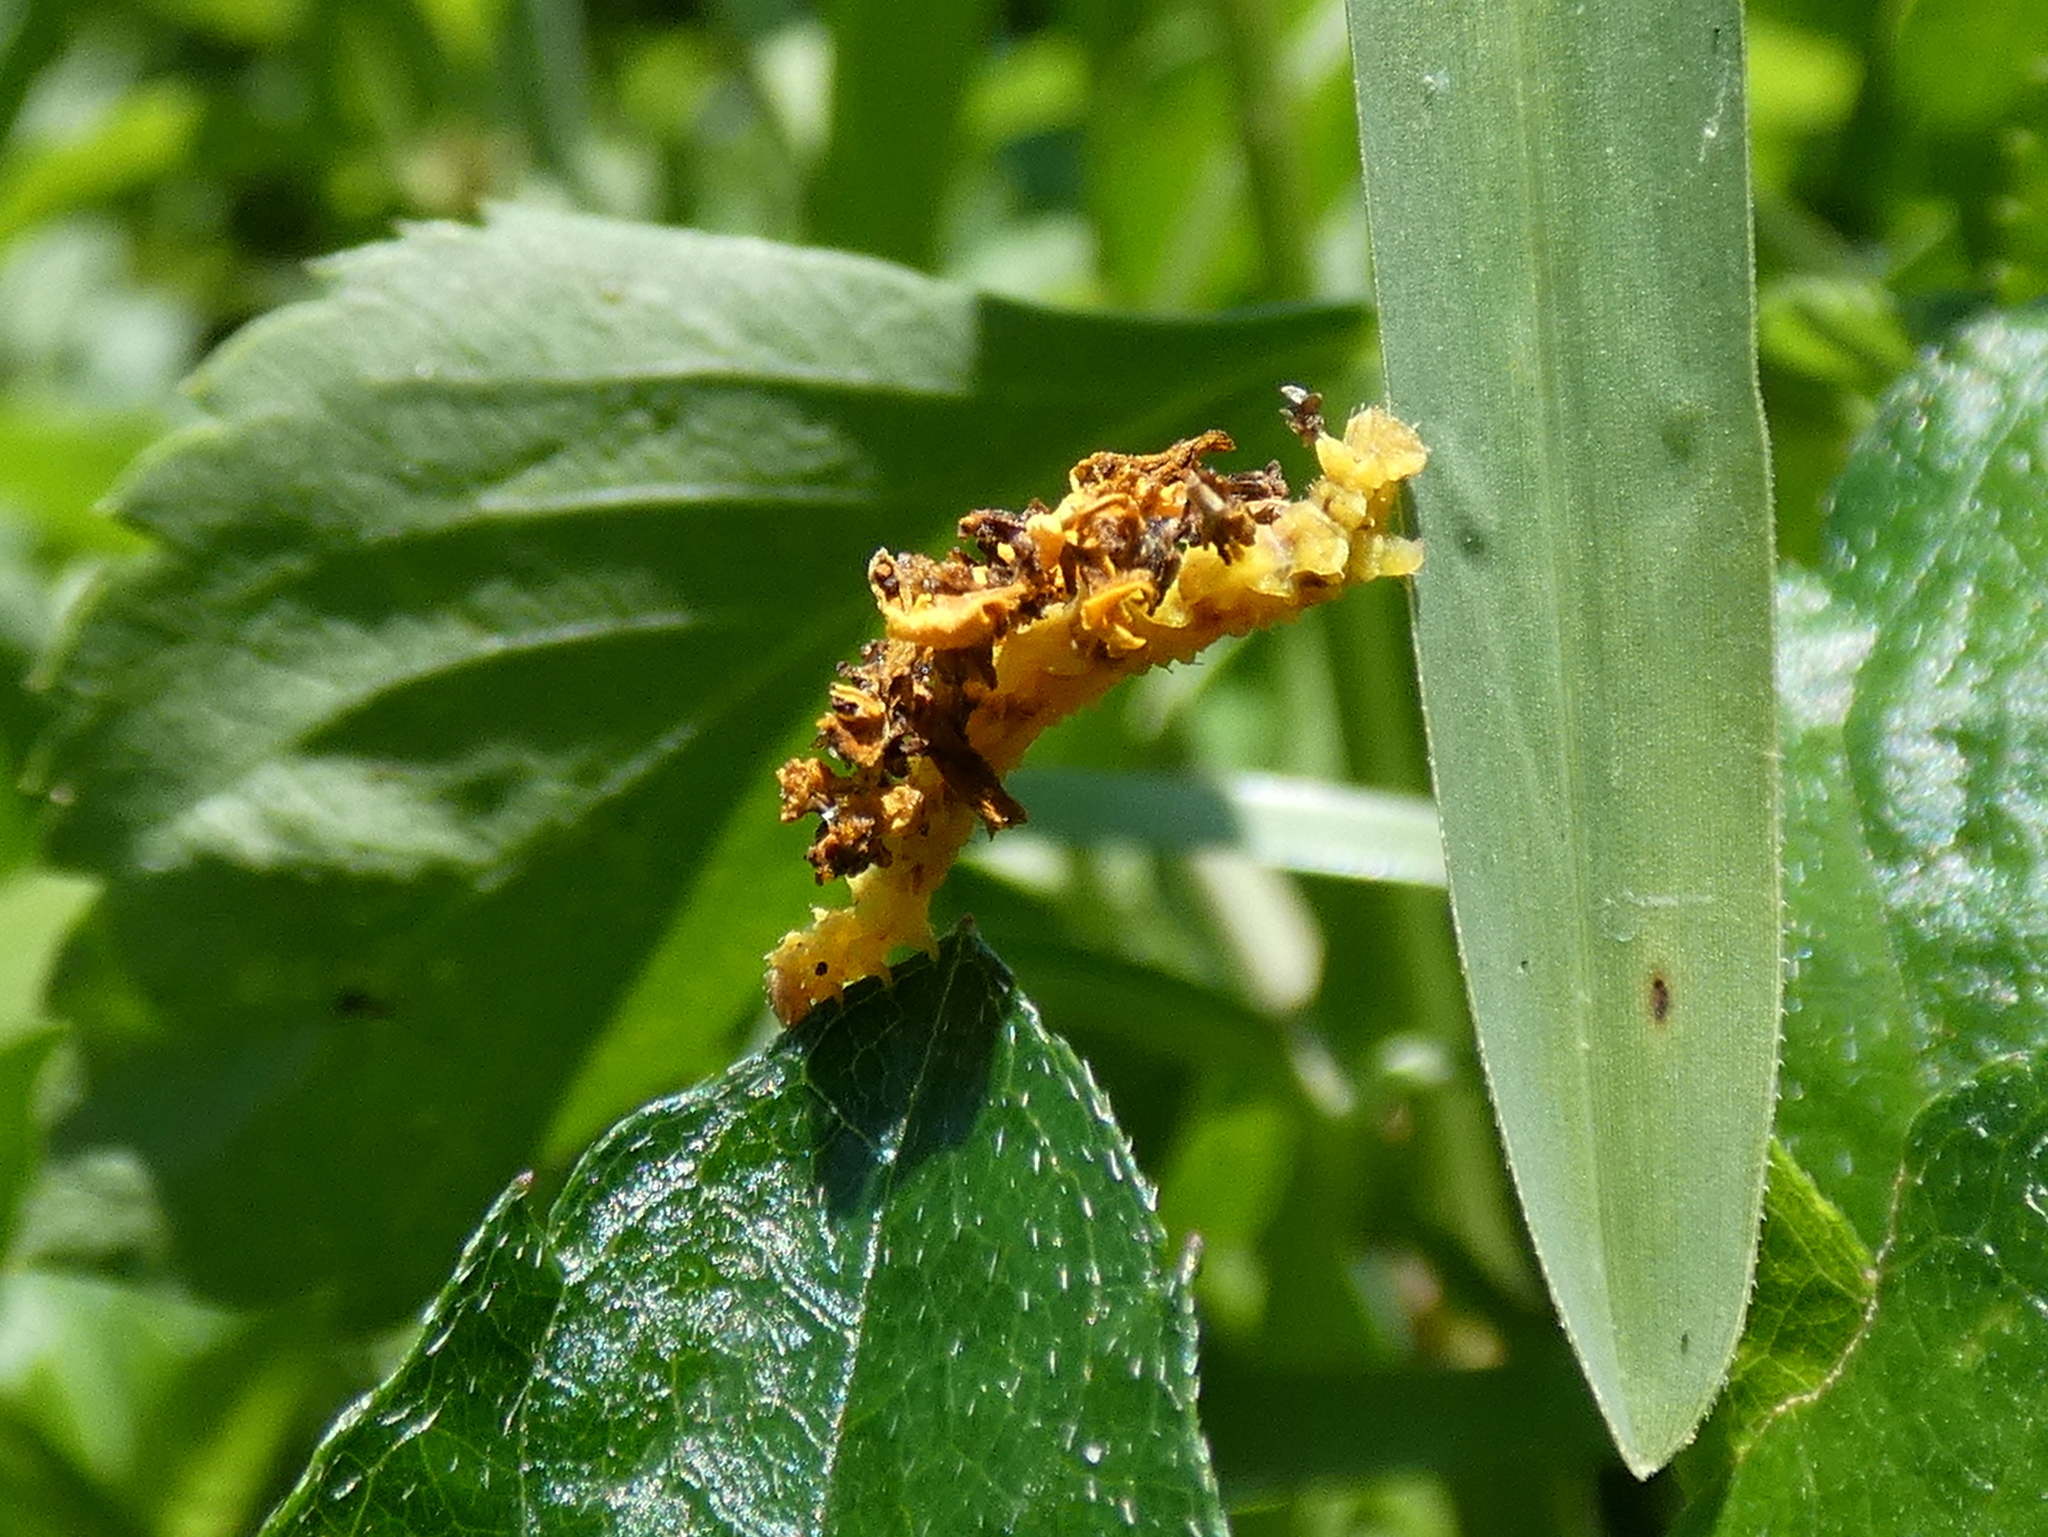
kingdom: Animalia
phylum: Arthropoda
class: Insecta
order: Lepidoptera
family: Geometridae
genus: Synchlora
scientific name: Synchlora frondaria
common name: Southern emerald
